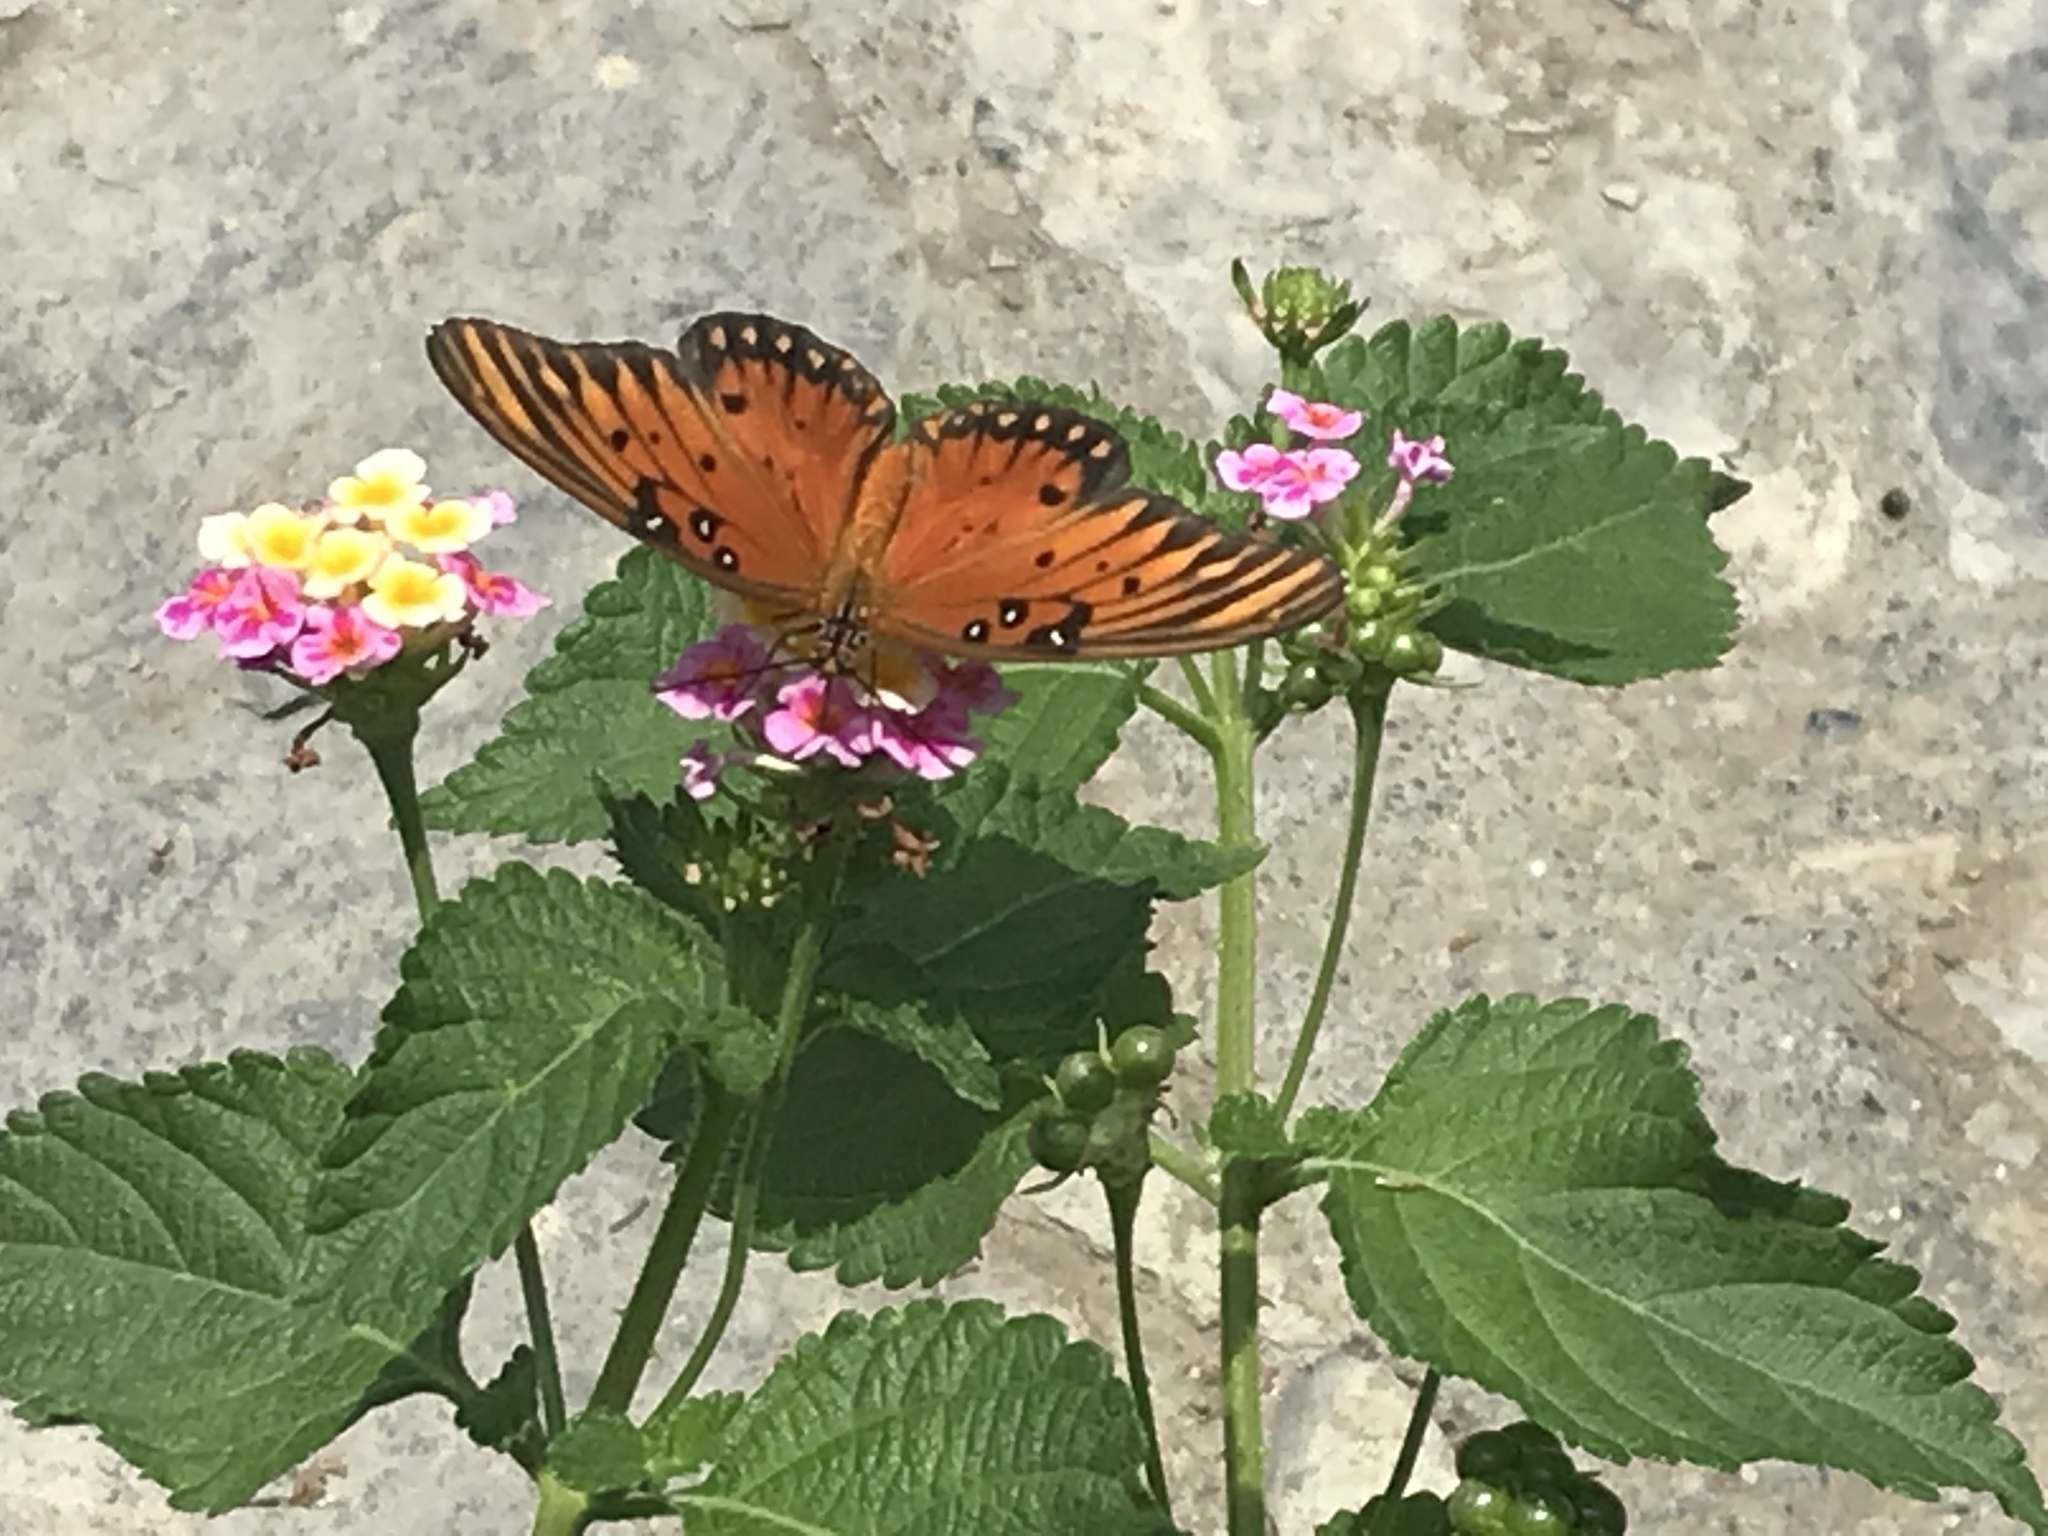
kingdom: Animalia
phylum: Arthropoda
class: Insecta
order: Lepidoptera
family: Nymphalidae
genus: Dione
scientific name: Dione vanillae
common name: Gulf fritillary
